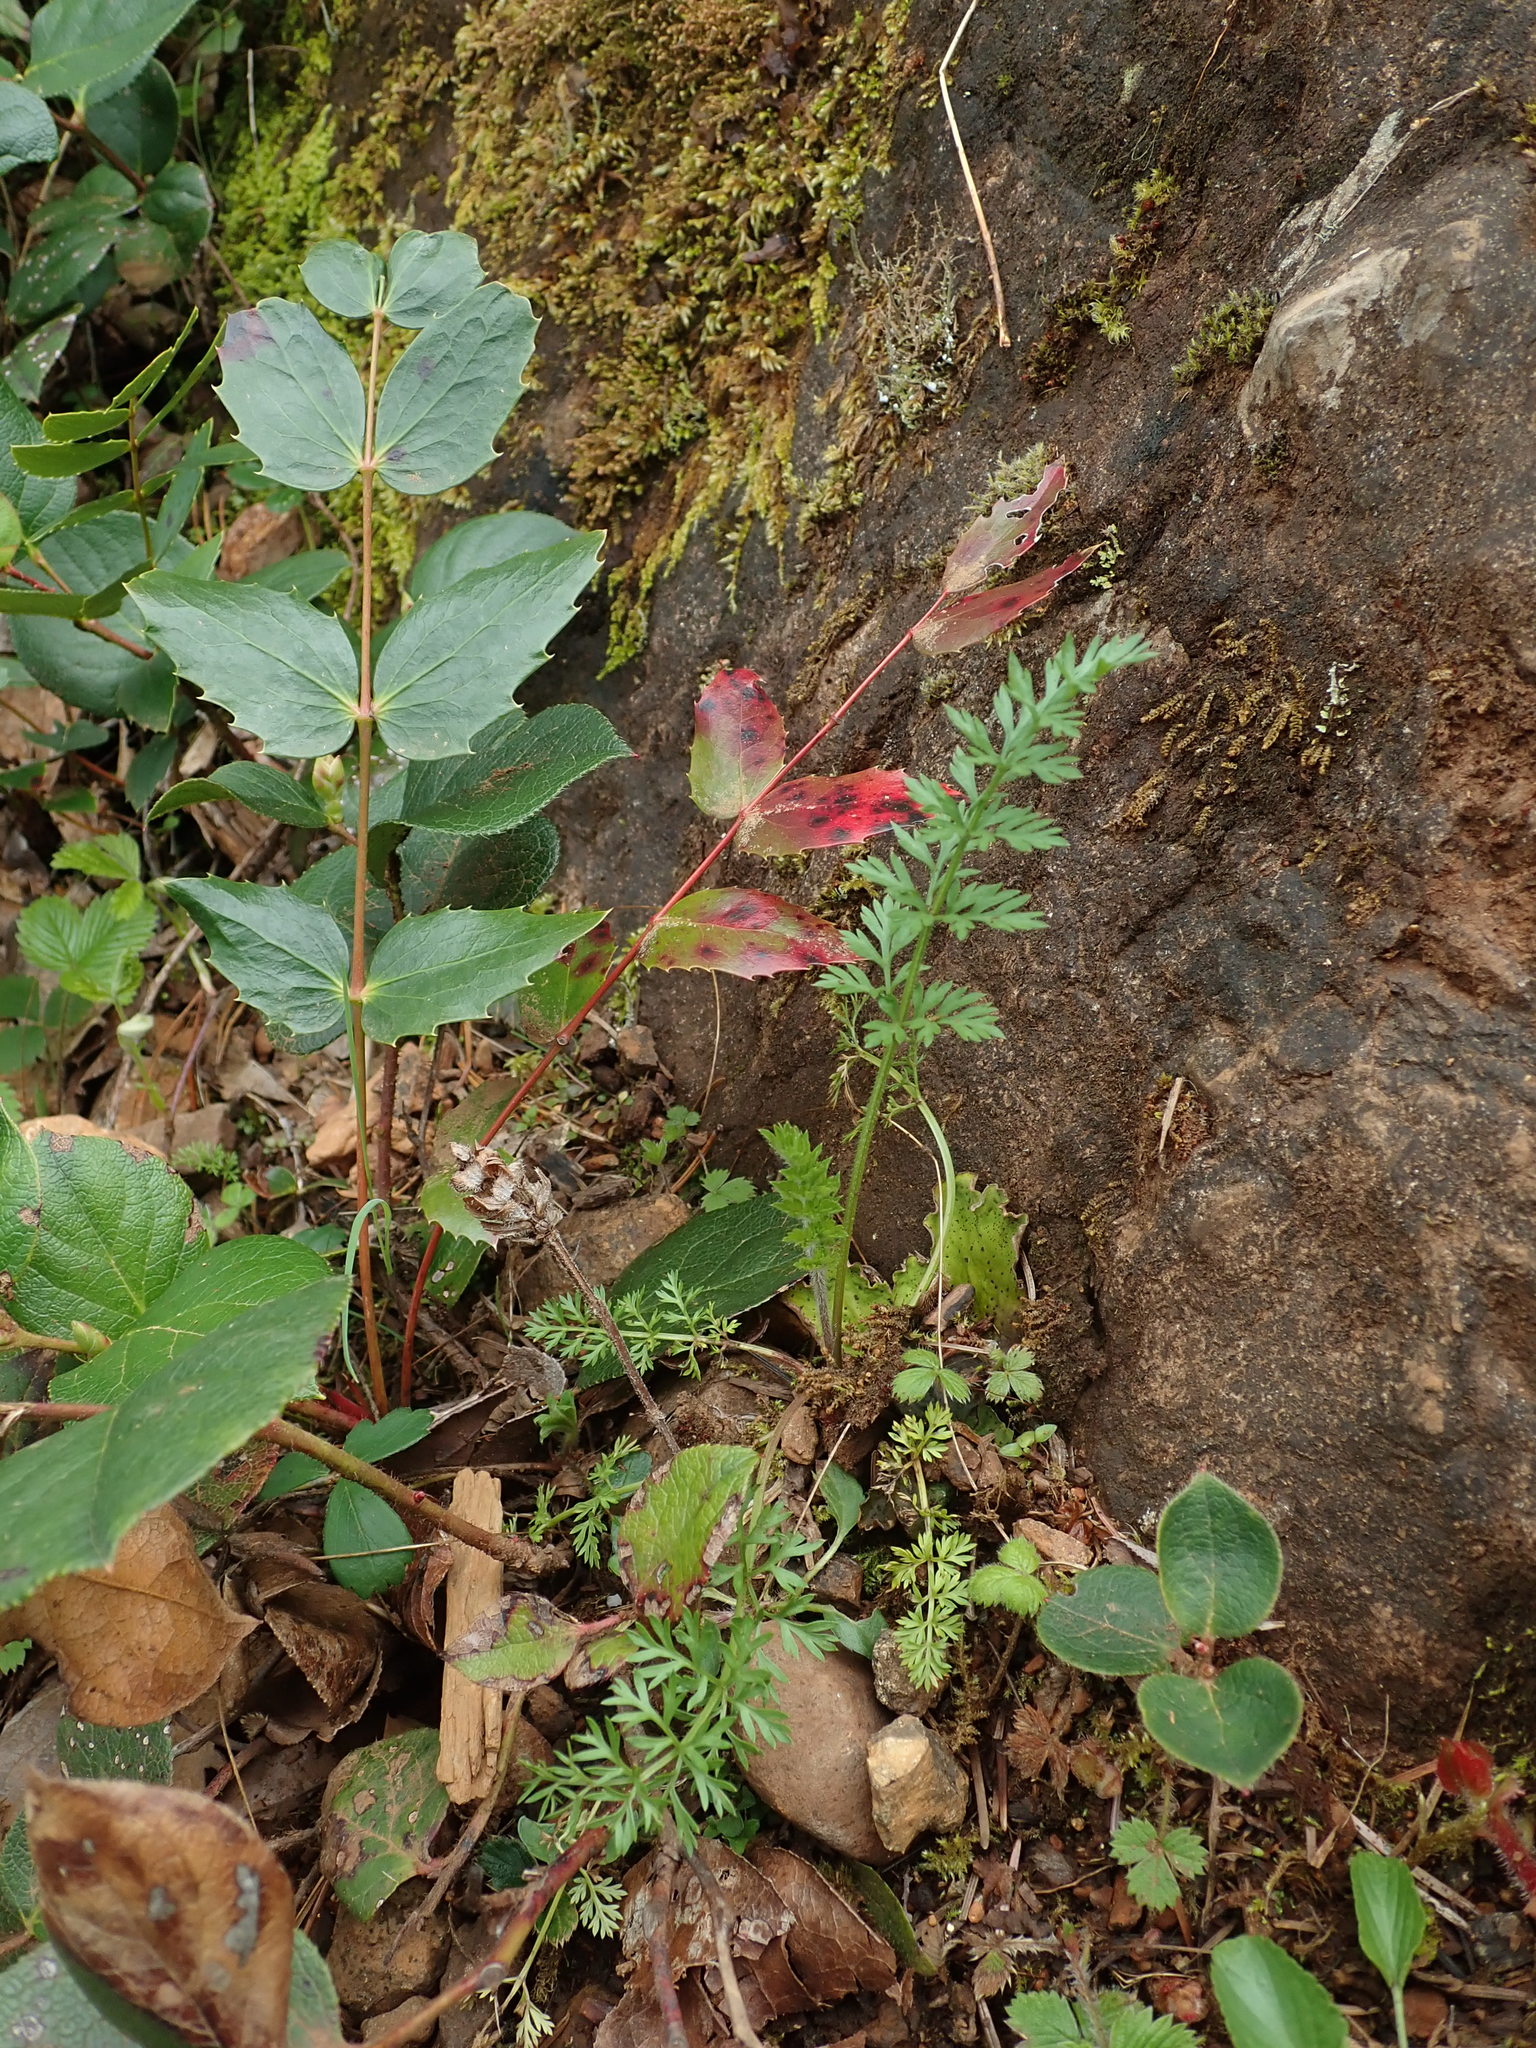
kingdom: Plantae
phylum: Tracheophyta
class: Magnoliopsida
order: Apiales
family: Apiaceae
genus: Daucus
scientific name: Daucus carota
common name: Wild carrot
